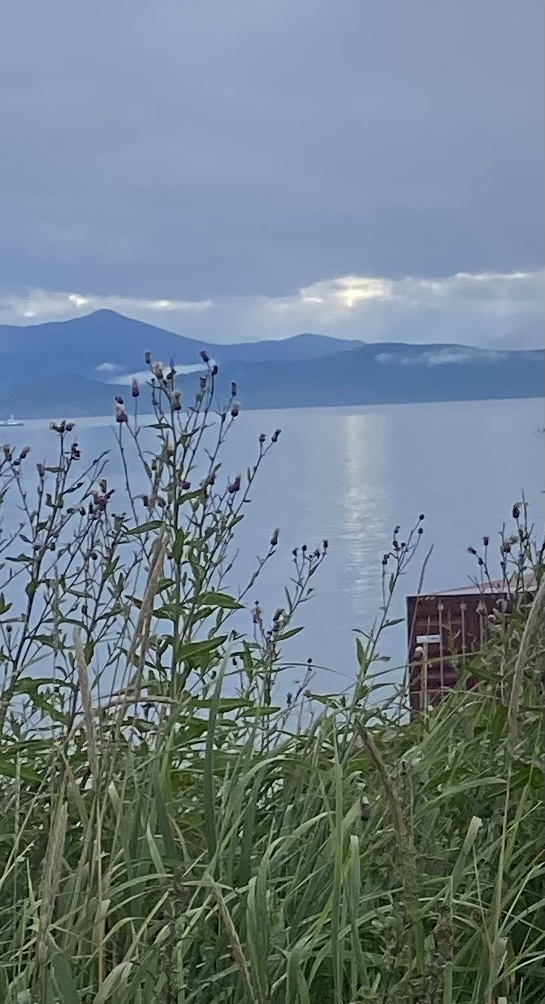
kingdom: Plantae
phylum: Tracheophyta
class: Magnoliopsida
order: Asterales
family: Asteraceae
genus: Cirsium
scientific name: Cirsium arvense
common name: Creeping thistle
